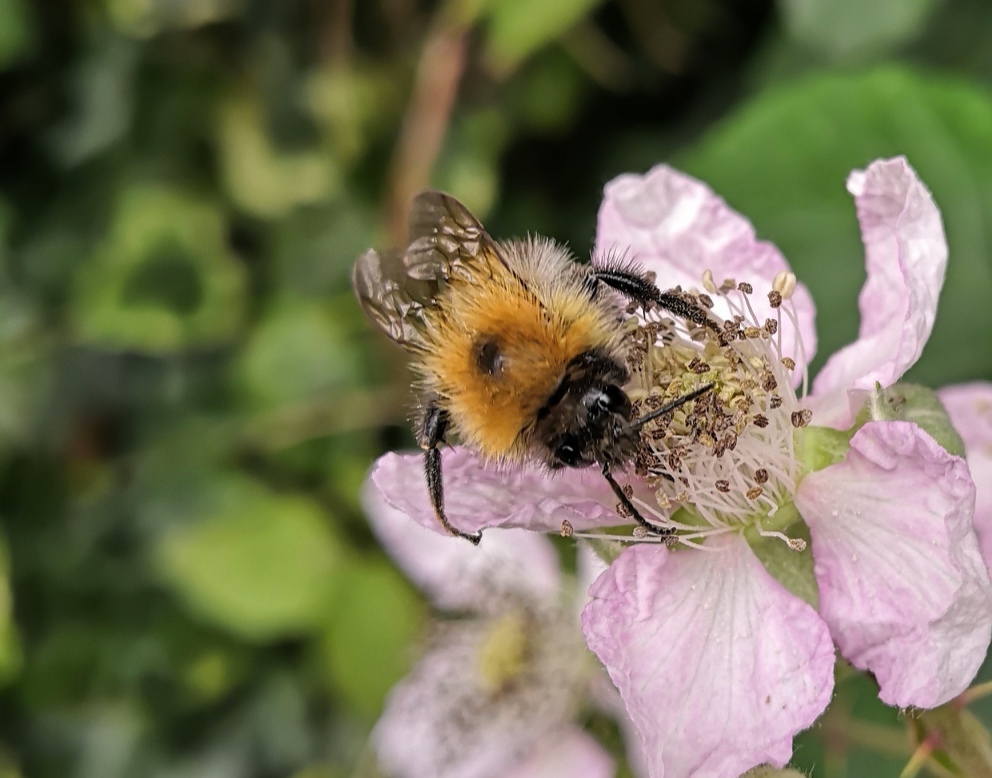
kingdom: Animalia
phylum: Arthropoda
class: Insecta
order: Hymenoptera
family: Apidae
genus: Bombus
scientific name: Bombus pascuorum
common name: Common carder bee
